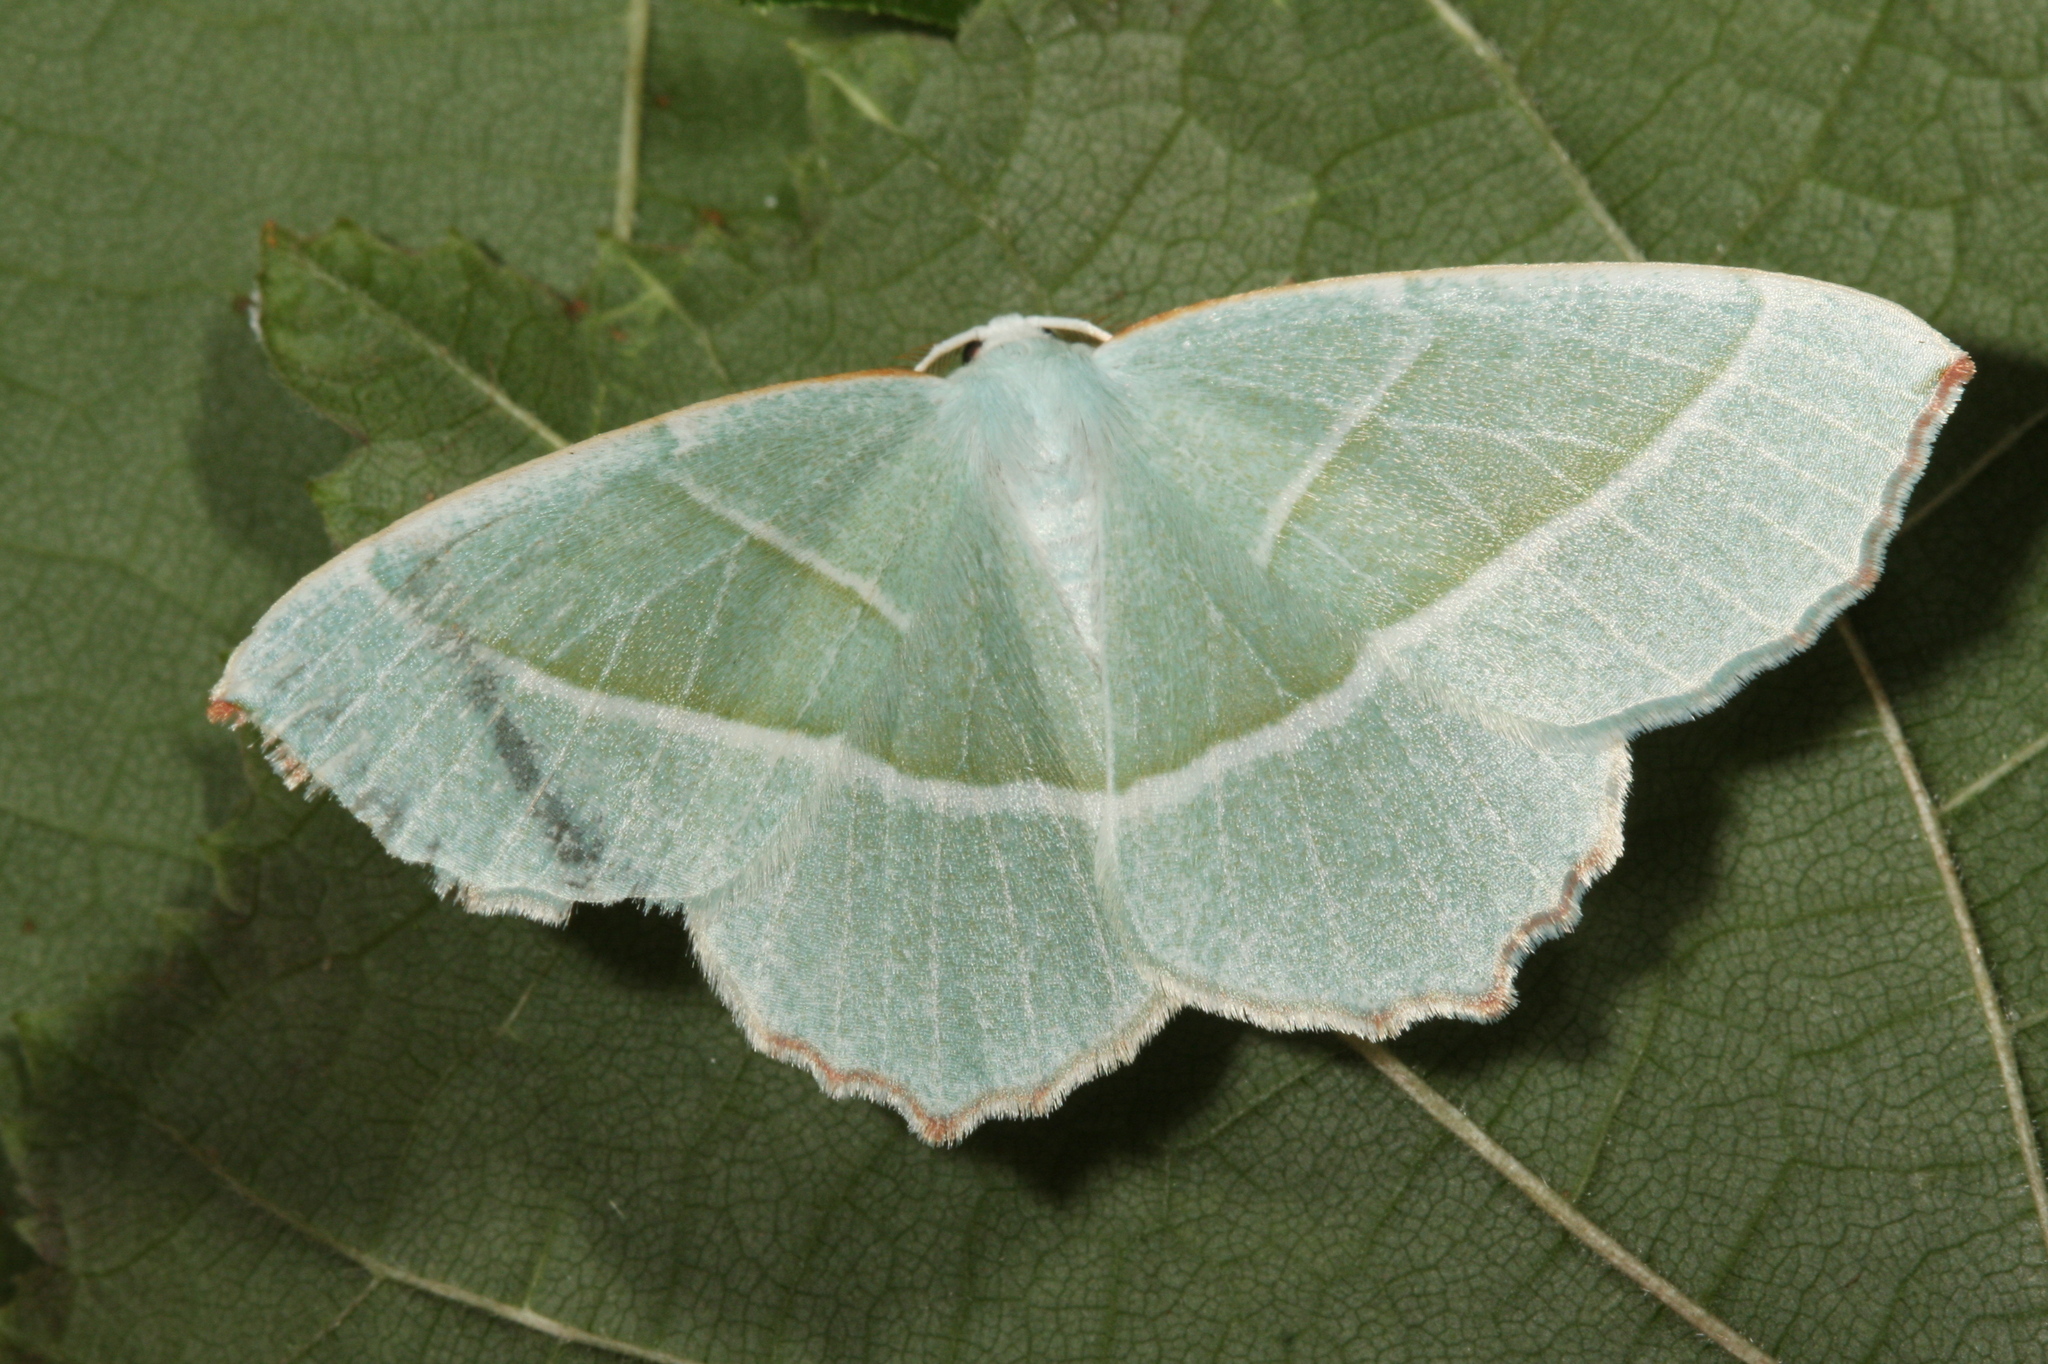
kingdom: Animalia
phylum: Arthropoda
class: Insecta
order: Lepidoptera
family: Geometridae
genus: Campaea
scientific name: Campaea margaritaria
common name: Light emerald
